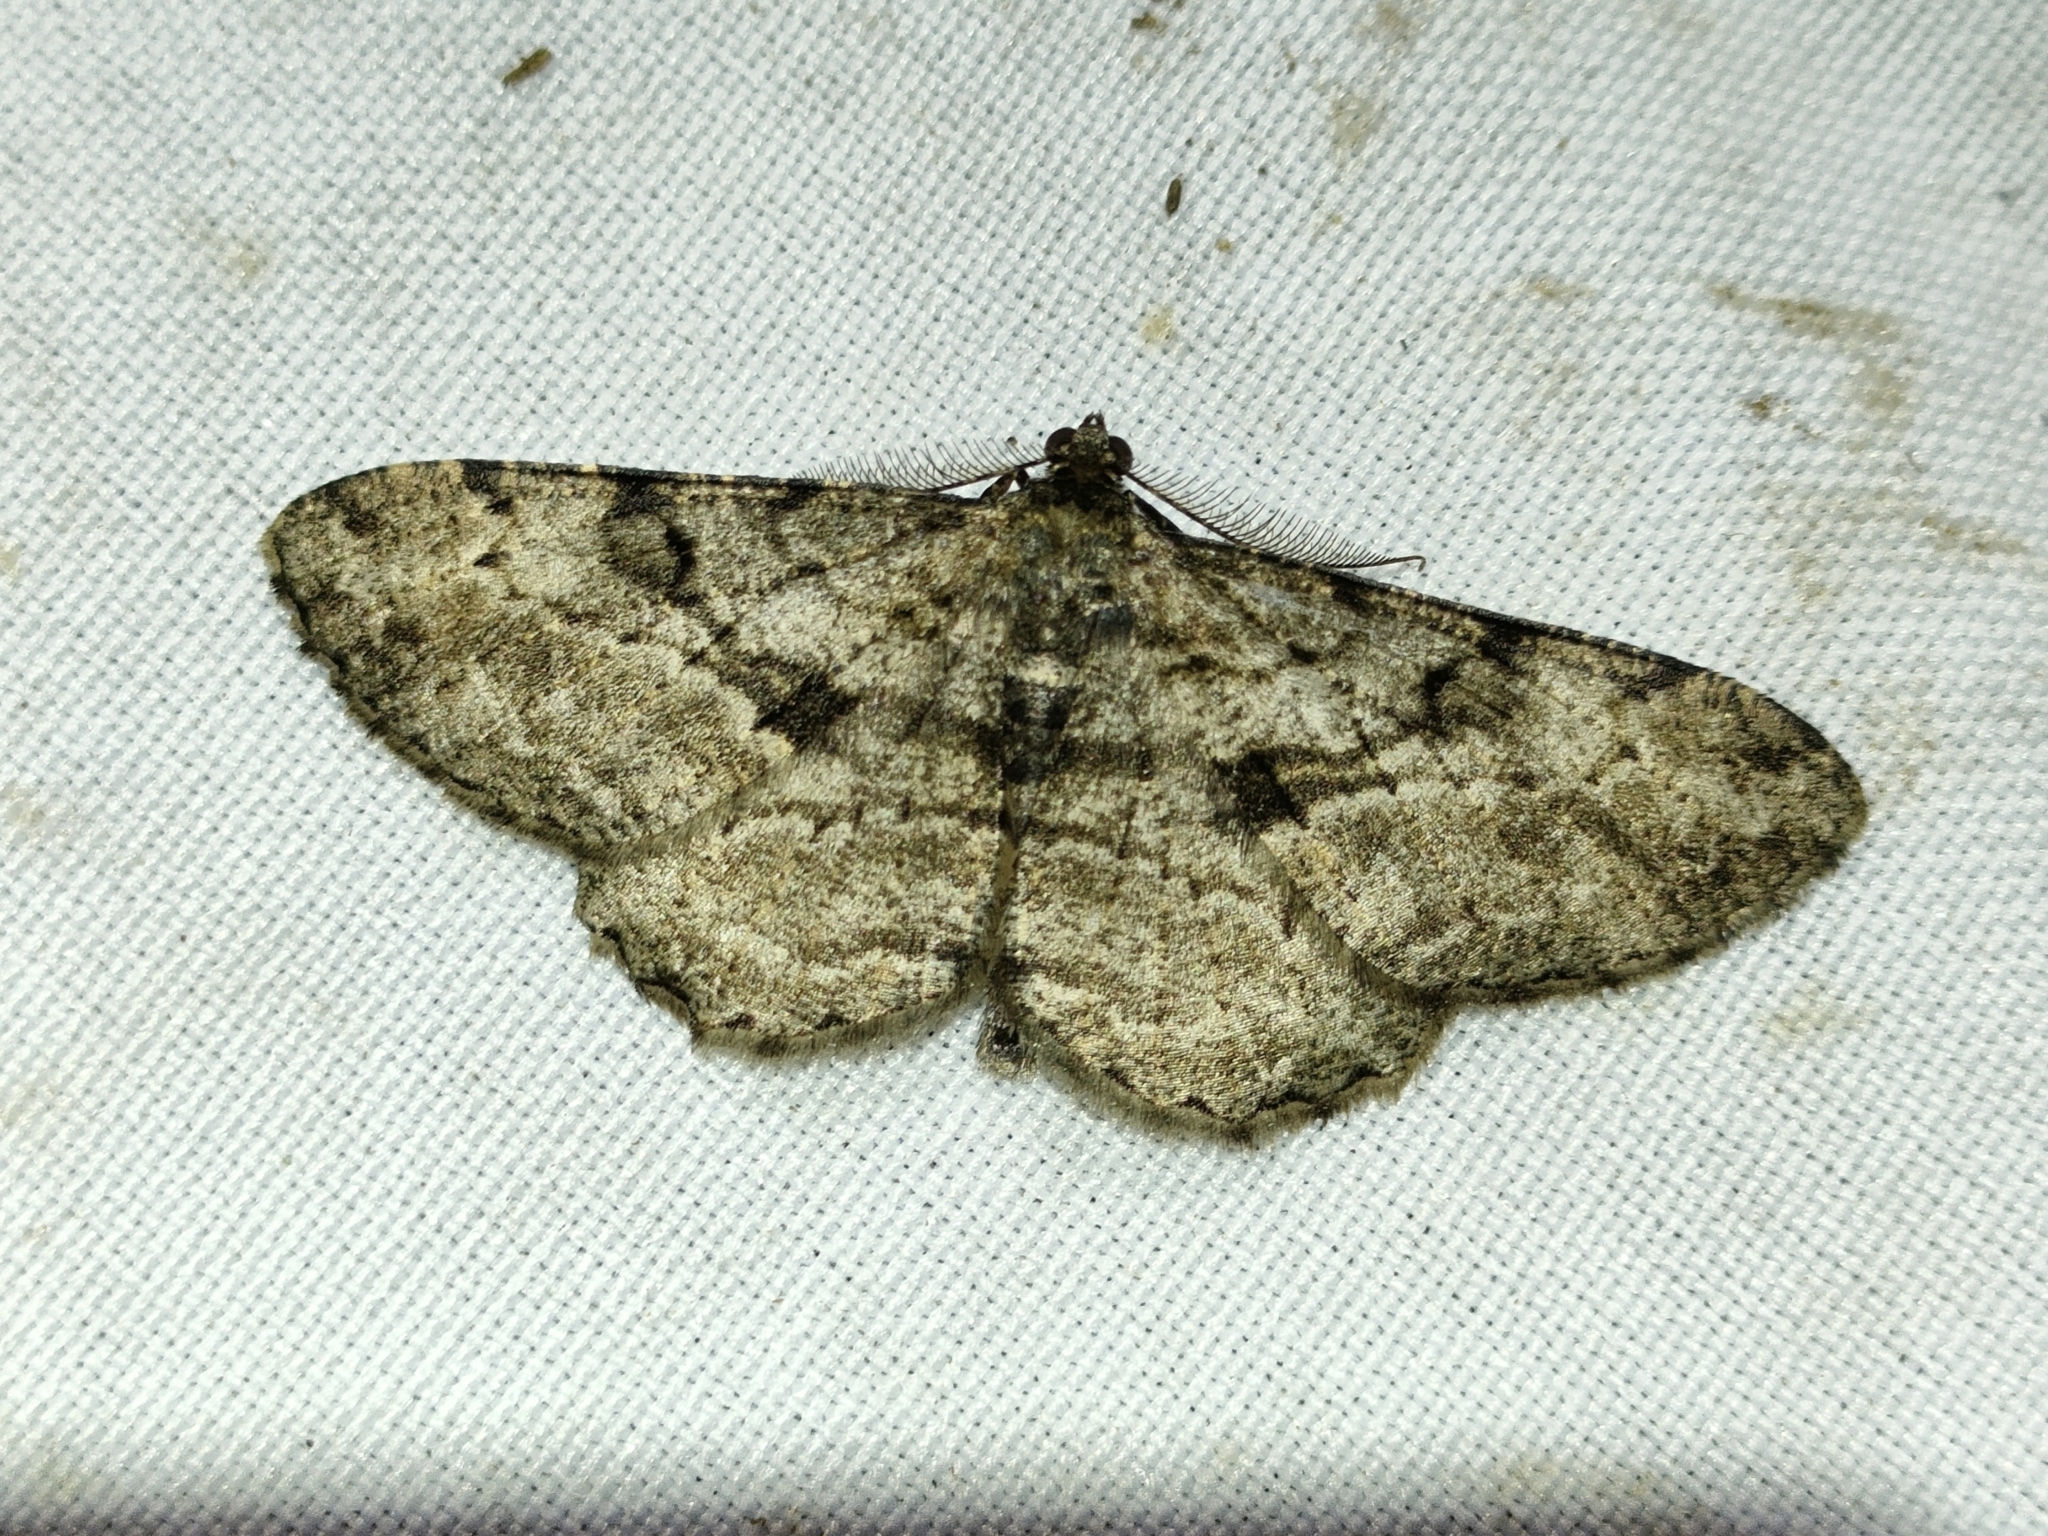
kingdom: Animalia
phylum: Arthropoda
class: Insecta
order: Lepidoptera
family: Geometridae
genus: Peribatodes
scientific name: Peribatodes rhomboidaria
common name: Willow beauty
